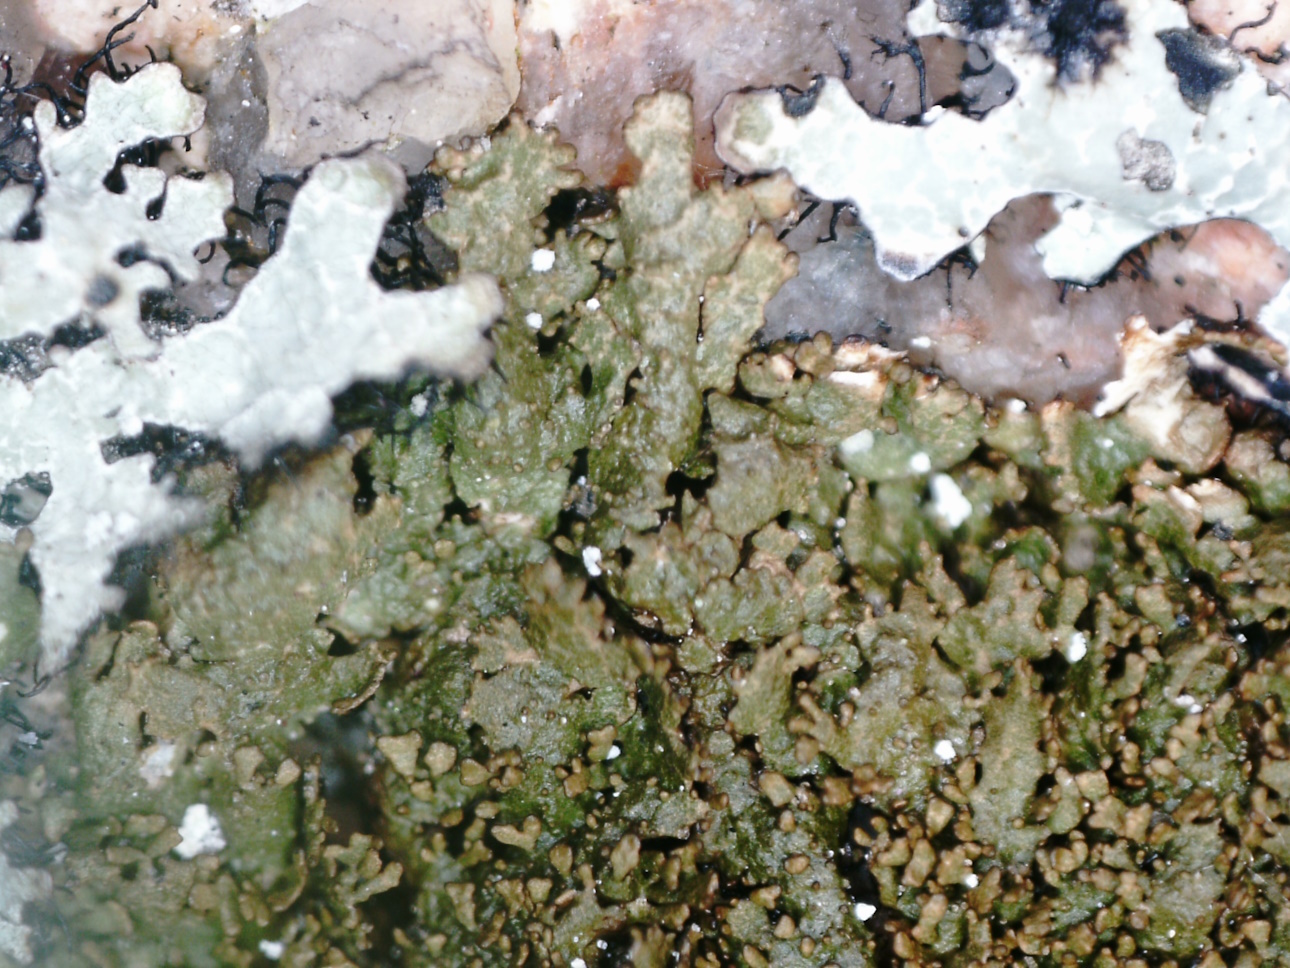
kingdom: Fungi
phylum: Ascomycota
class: Lecanoromycetes
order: Lecanorales
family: Parmeliaceae
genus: Montanelia
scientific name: Montanelia panniformis
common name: Shingled camouflage lichen
